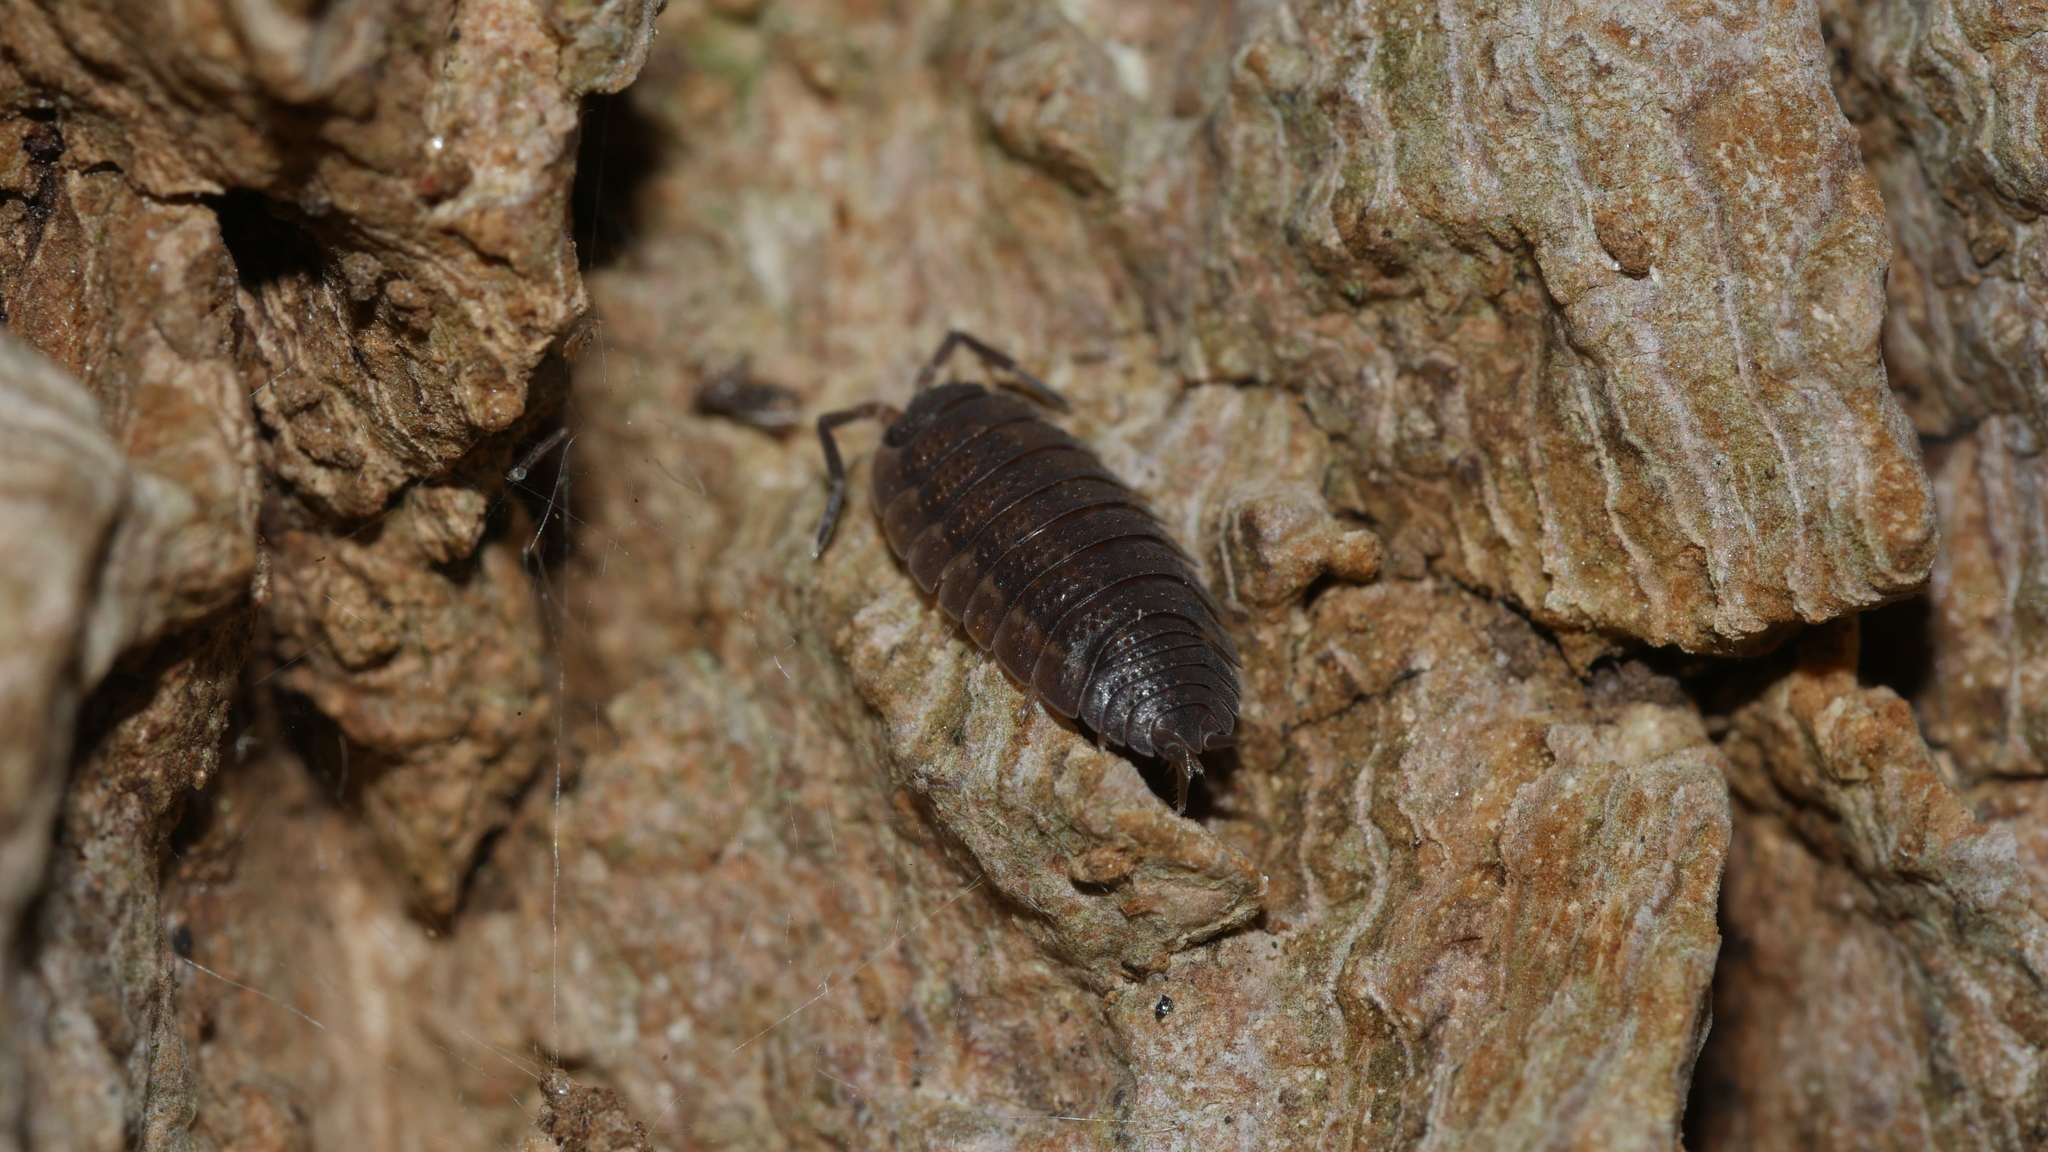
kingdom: Animalia
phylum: Arthropoda
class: Malacostraca
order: Isopoda
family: Porcellionidae
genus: Porcellio
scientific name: Porcellio scaber
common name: Common rough woodlouse
